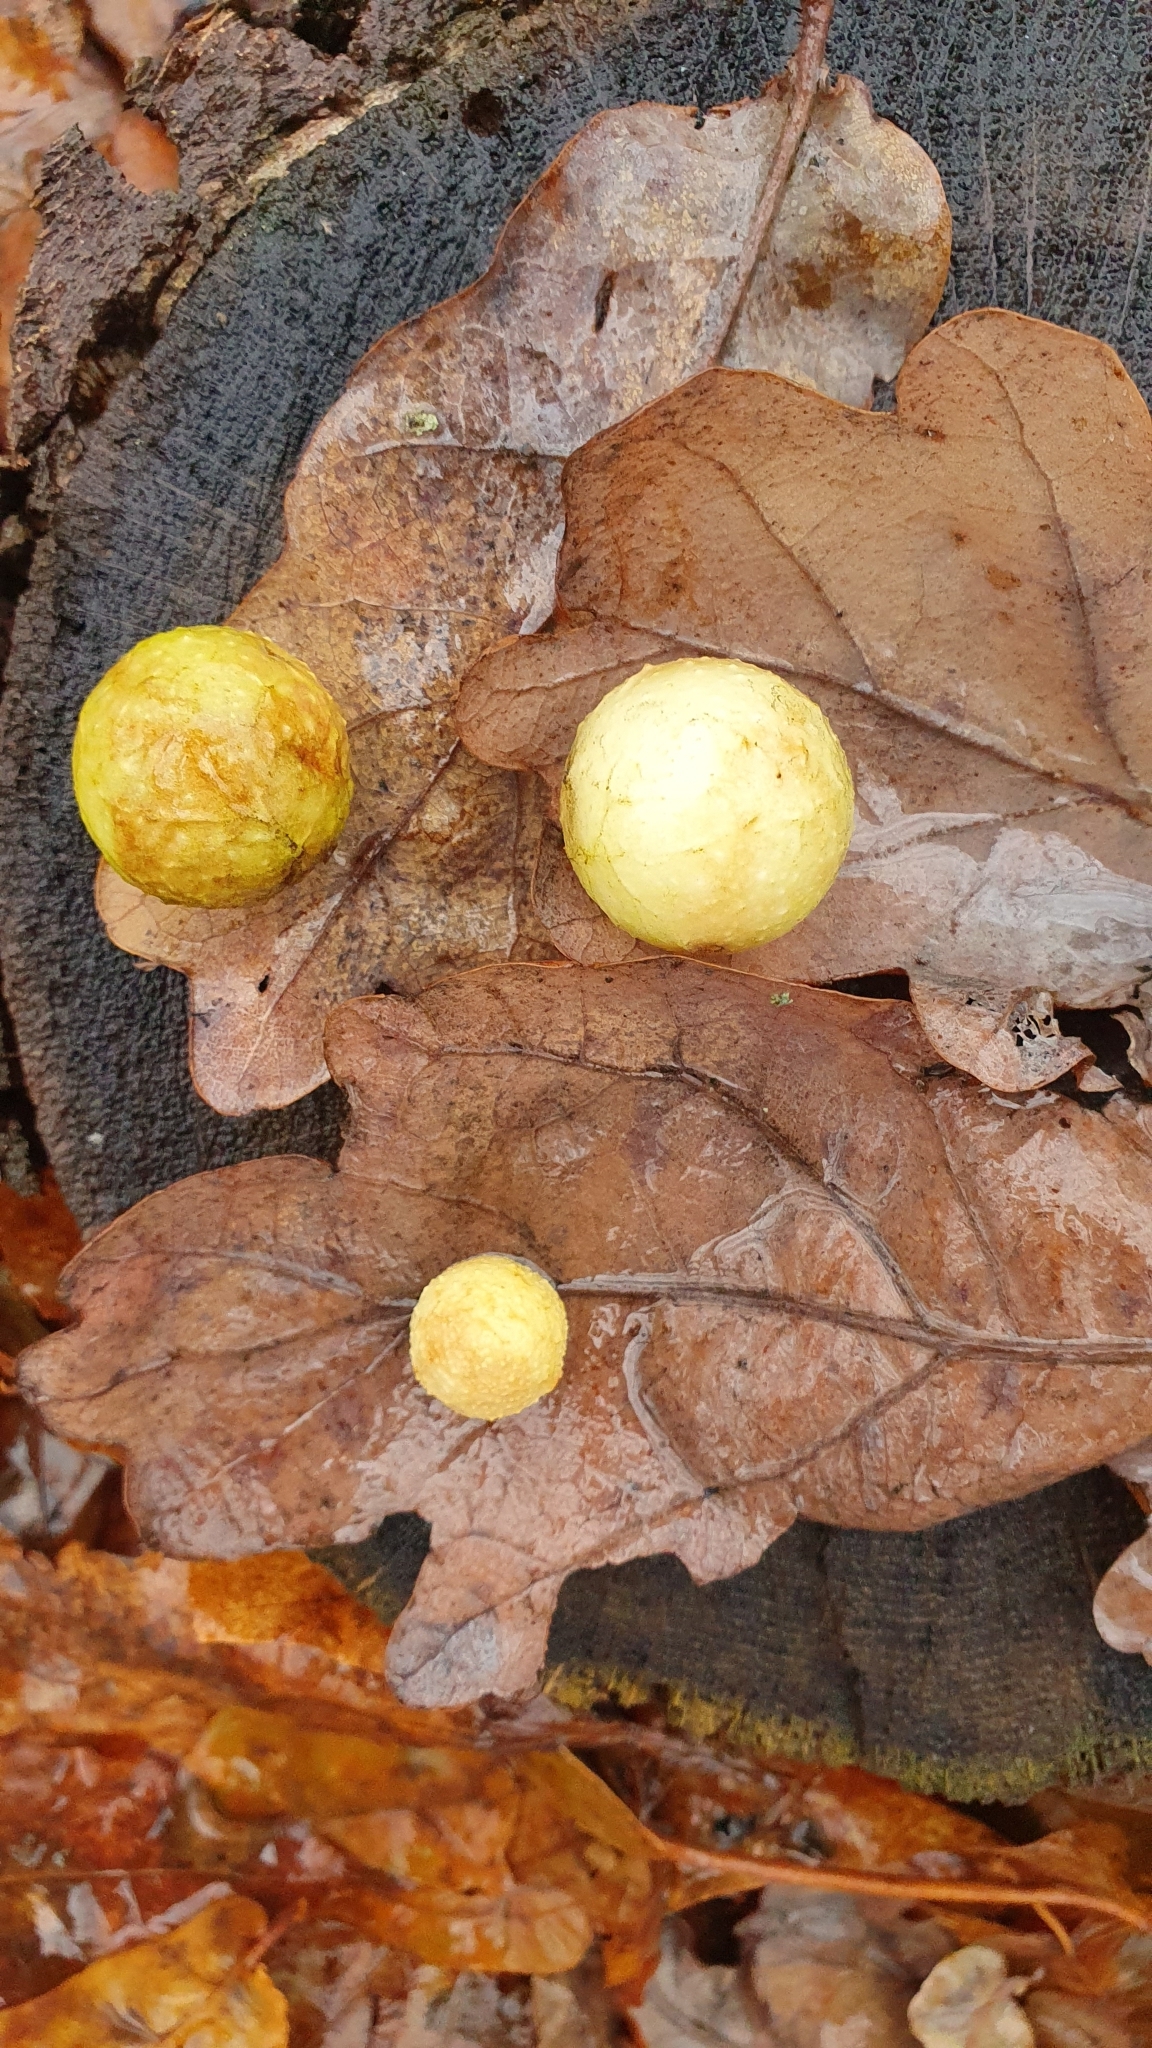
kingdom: Animalia
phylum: Arthropoda
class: Insecta
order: Hymenoptera
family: Cynipidae
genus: Cynips
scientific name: Cynips quercusfolii
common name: Cherry gall
